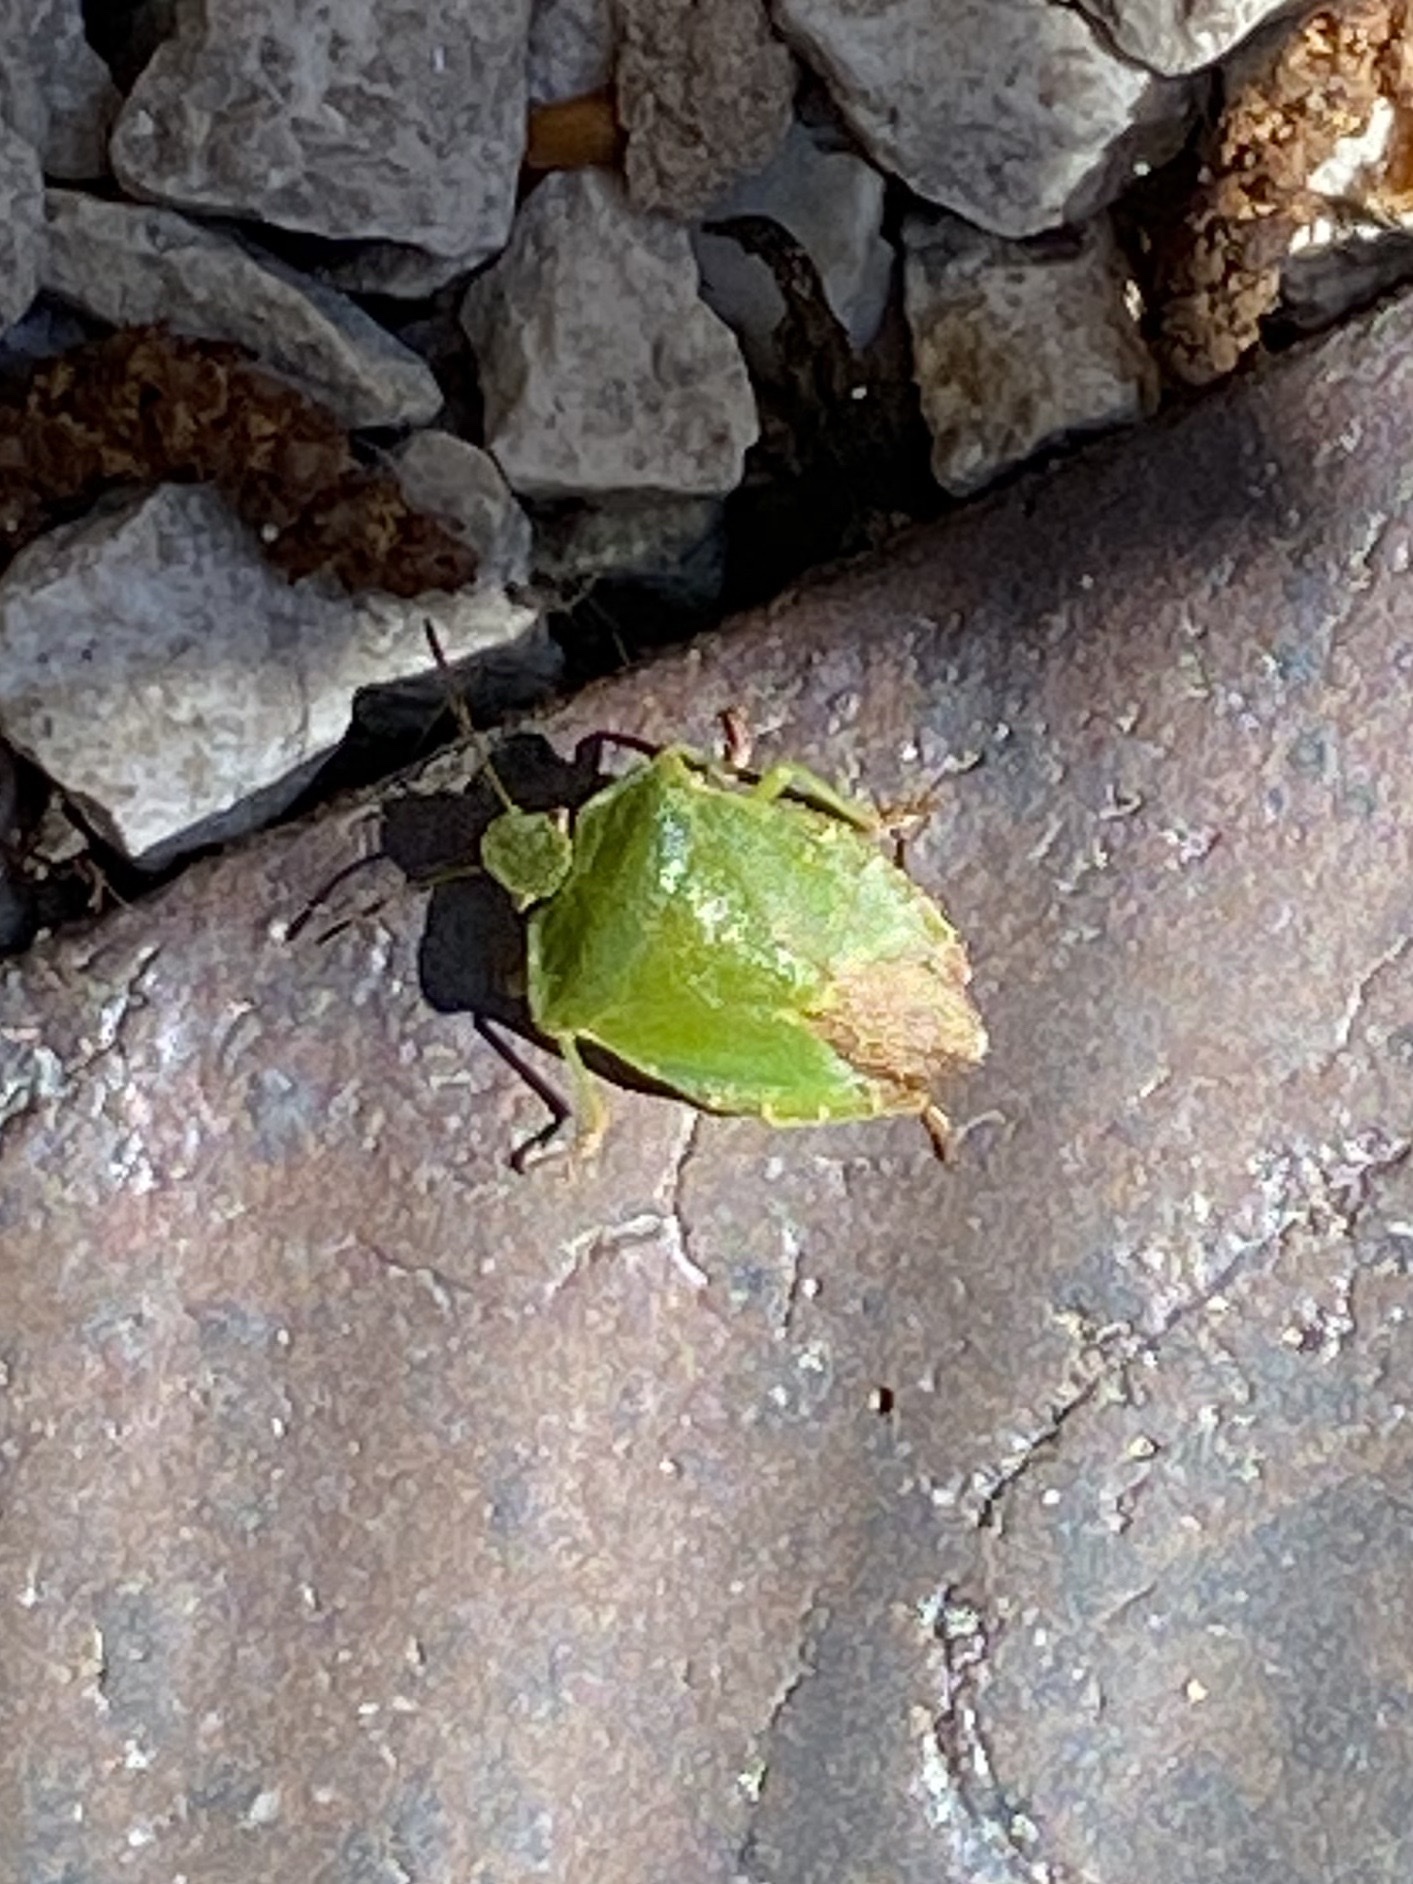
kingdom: Animalia
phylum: Arthropoda
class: Insecta
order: Hemiptera
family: Pentatomidae
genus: Palomena
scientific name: Palomena prasina
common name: Green shieldbug
